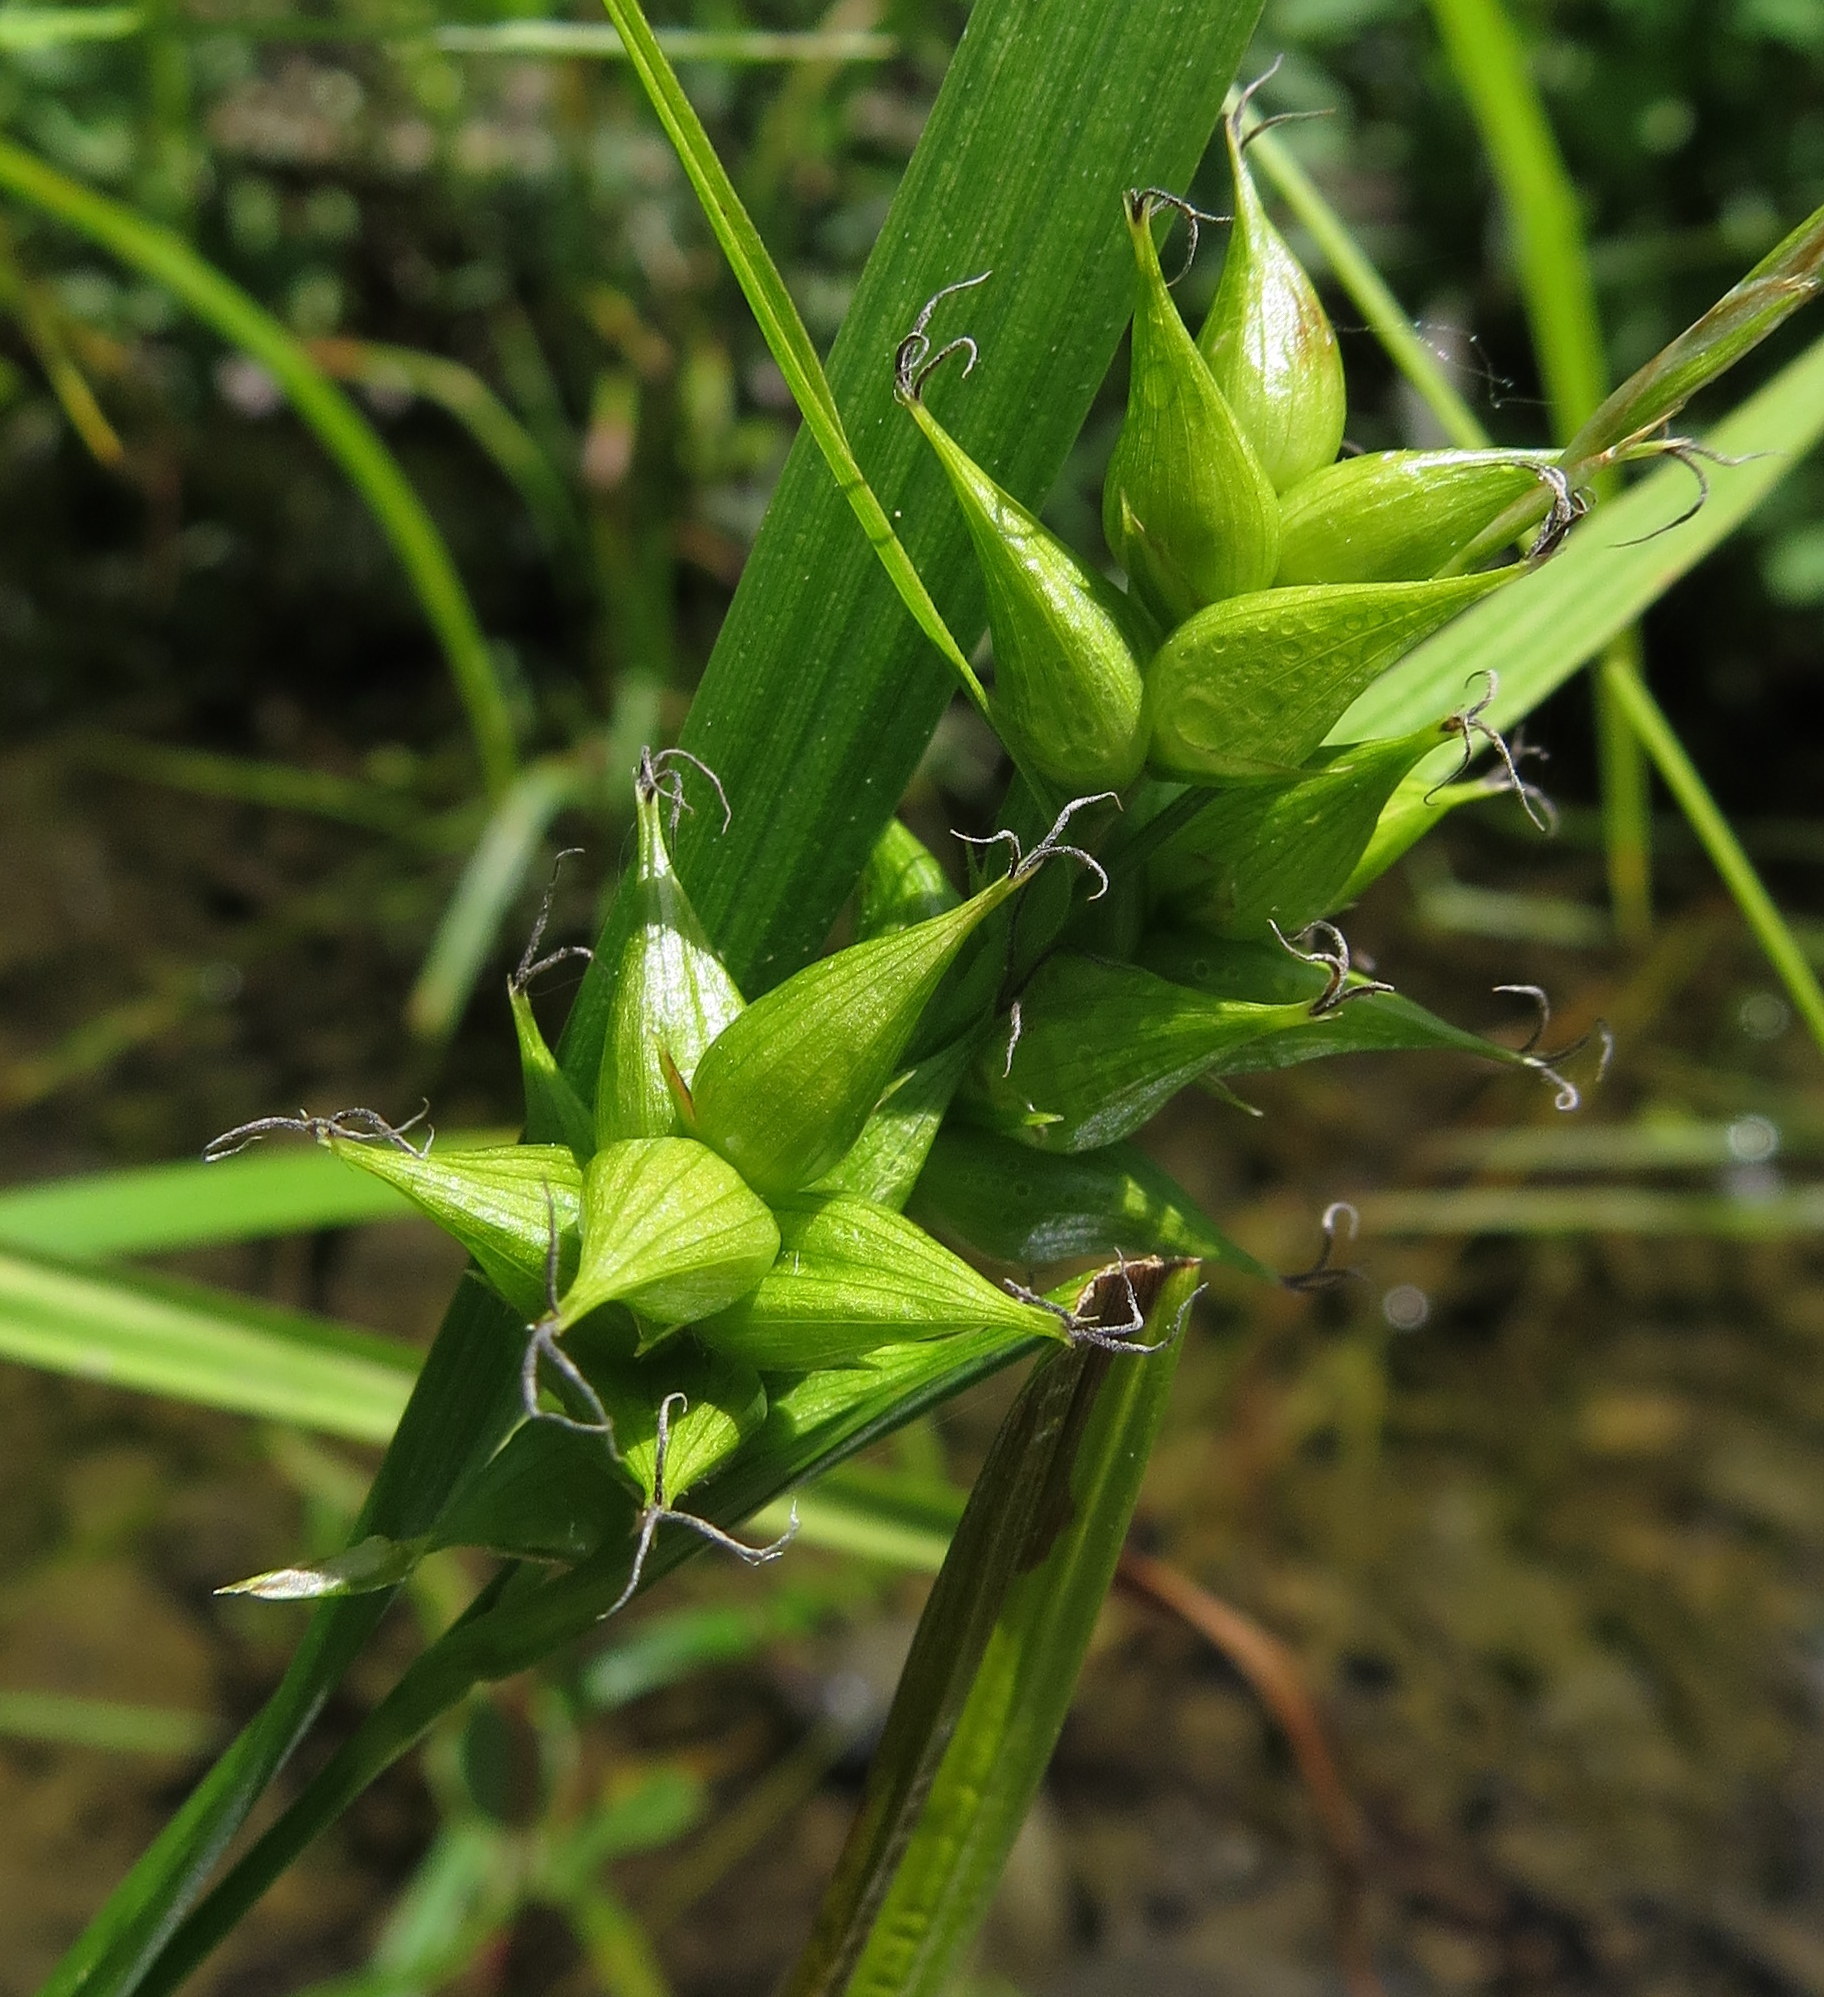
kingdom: Plantae
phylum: Tracheophyta
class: Liliopsida
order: Poales
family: Cyperaceae
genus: Carex
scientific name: Carex intumescens
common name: Greater bladder sedge
